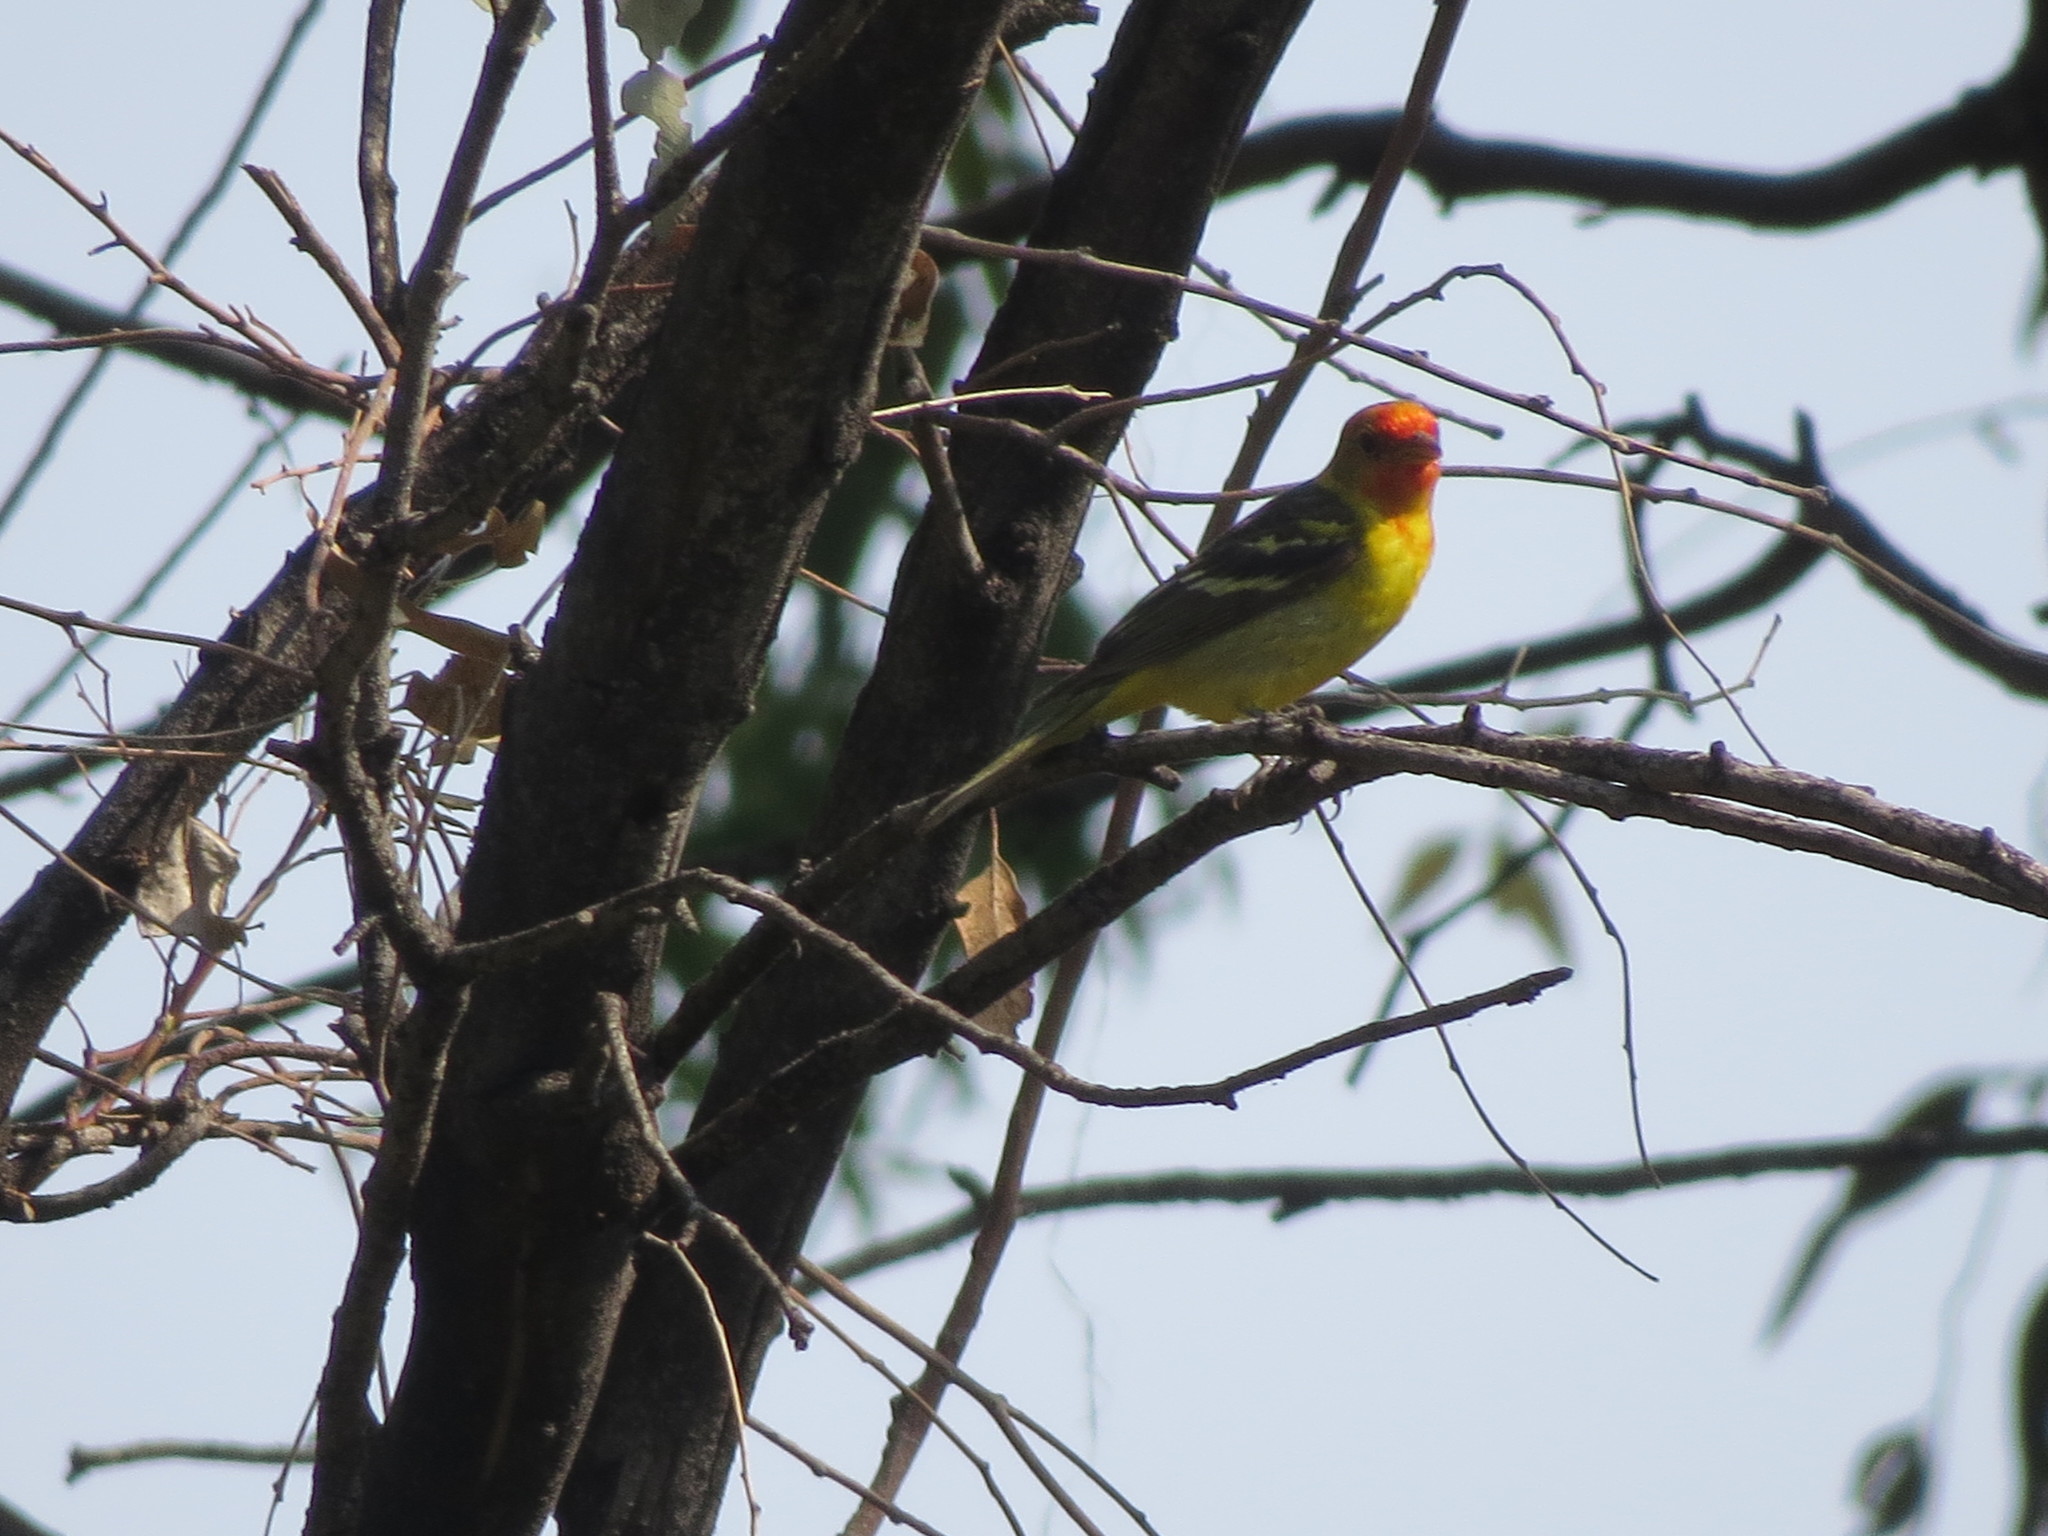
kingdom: Animalia
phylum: Chordata
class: Aves
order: Passeriformes
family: Cardinalidae
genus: Piranga
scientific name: Piranga ludoviciana
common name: Western tanager
